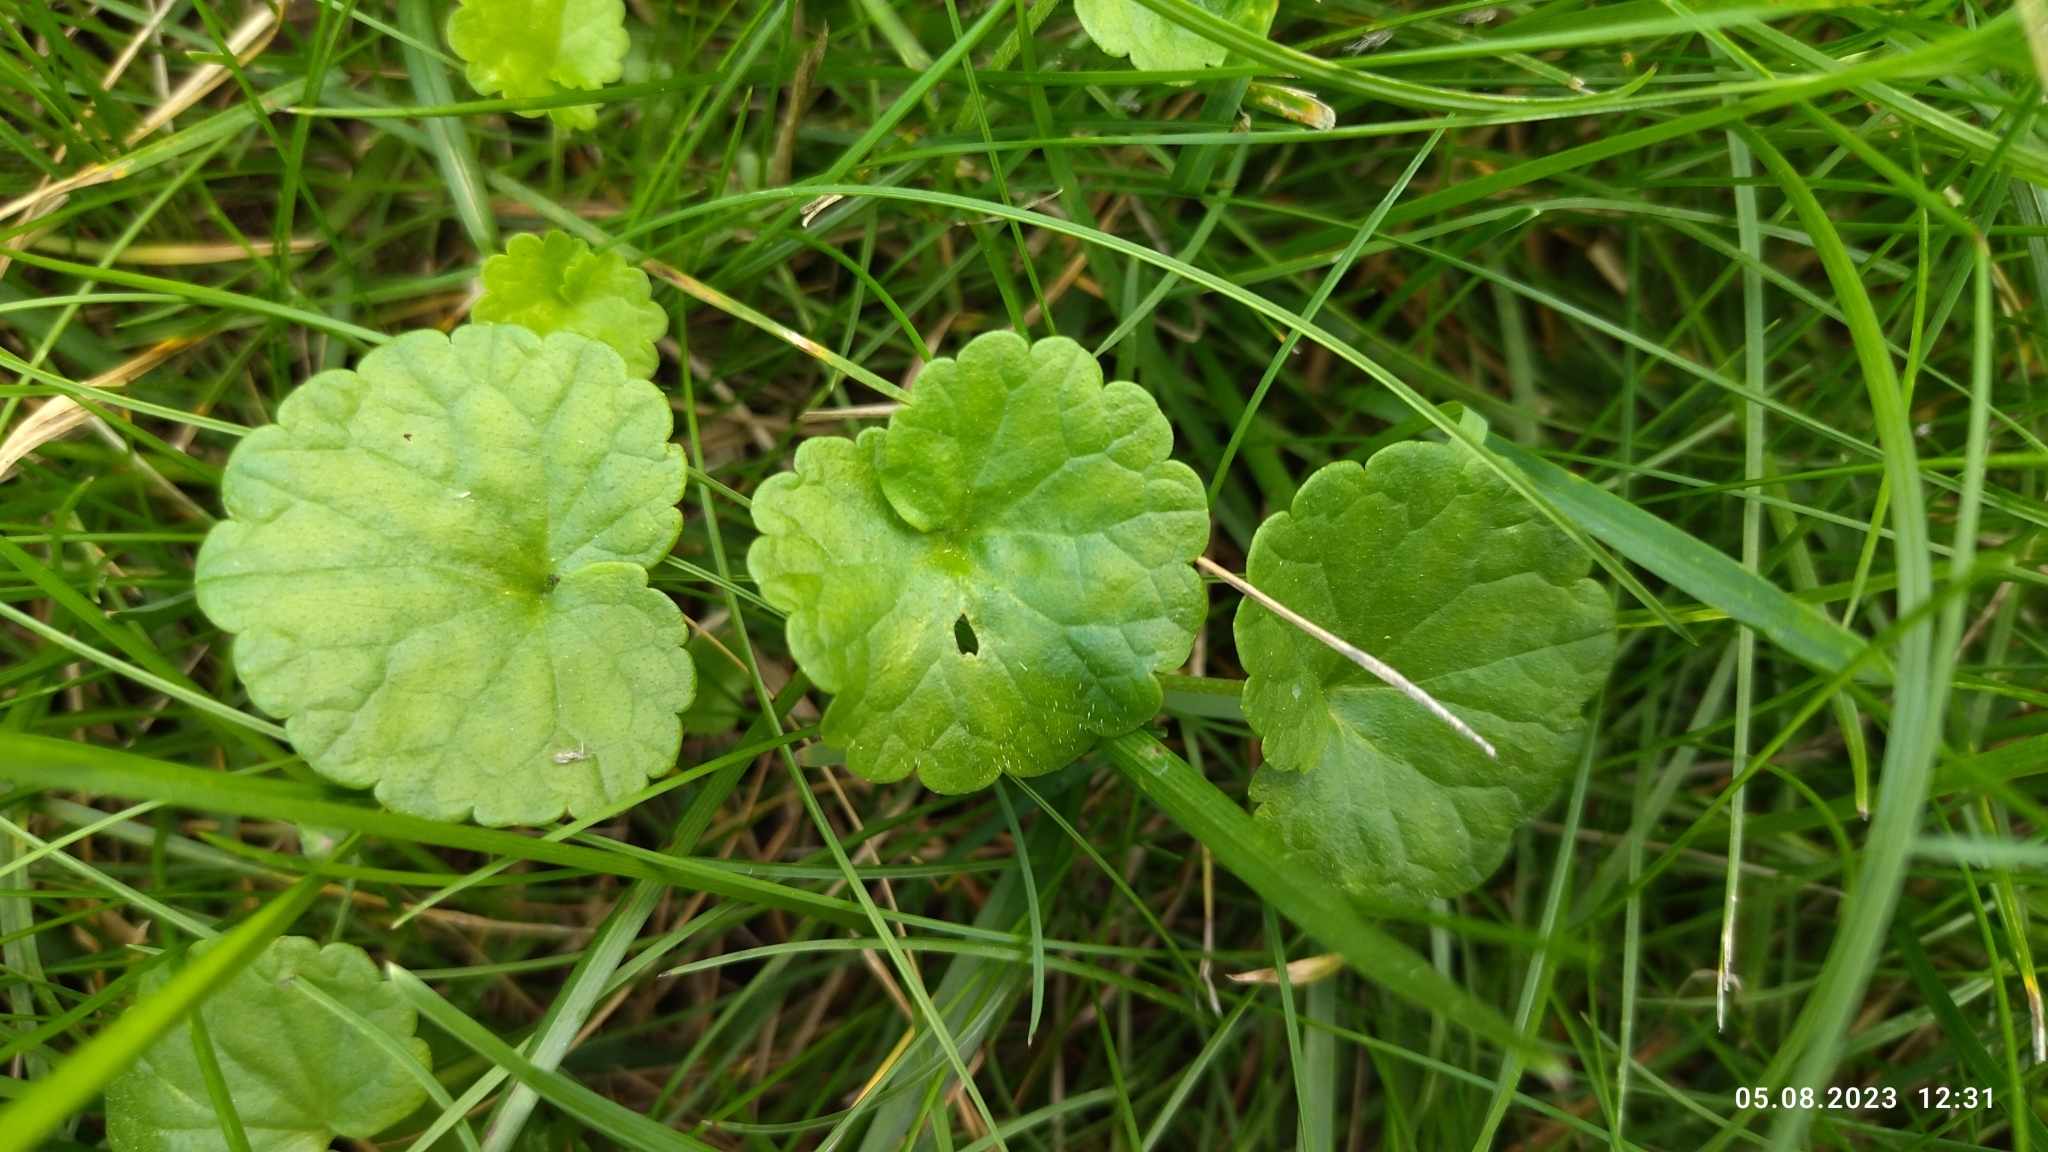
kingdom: Plantae
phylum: Tracheophyta
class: Magnoliopsida
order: Lamiales
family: Lamiaceae
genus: Glechoma
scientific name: Glechoma hederacea
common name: Ground ivy
